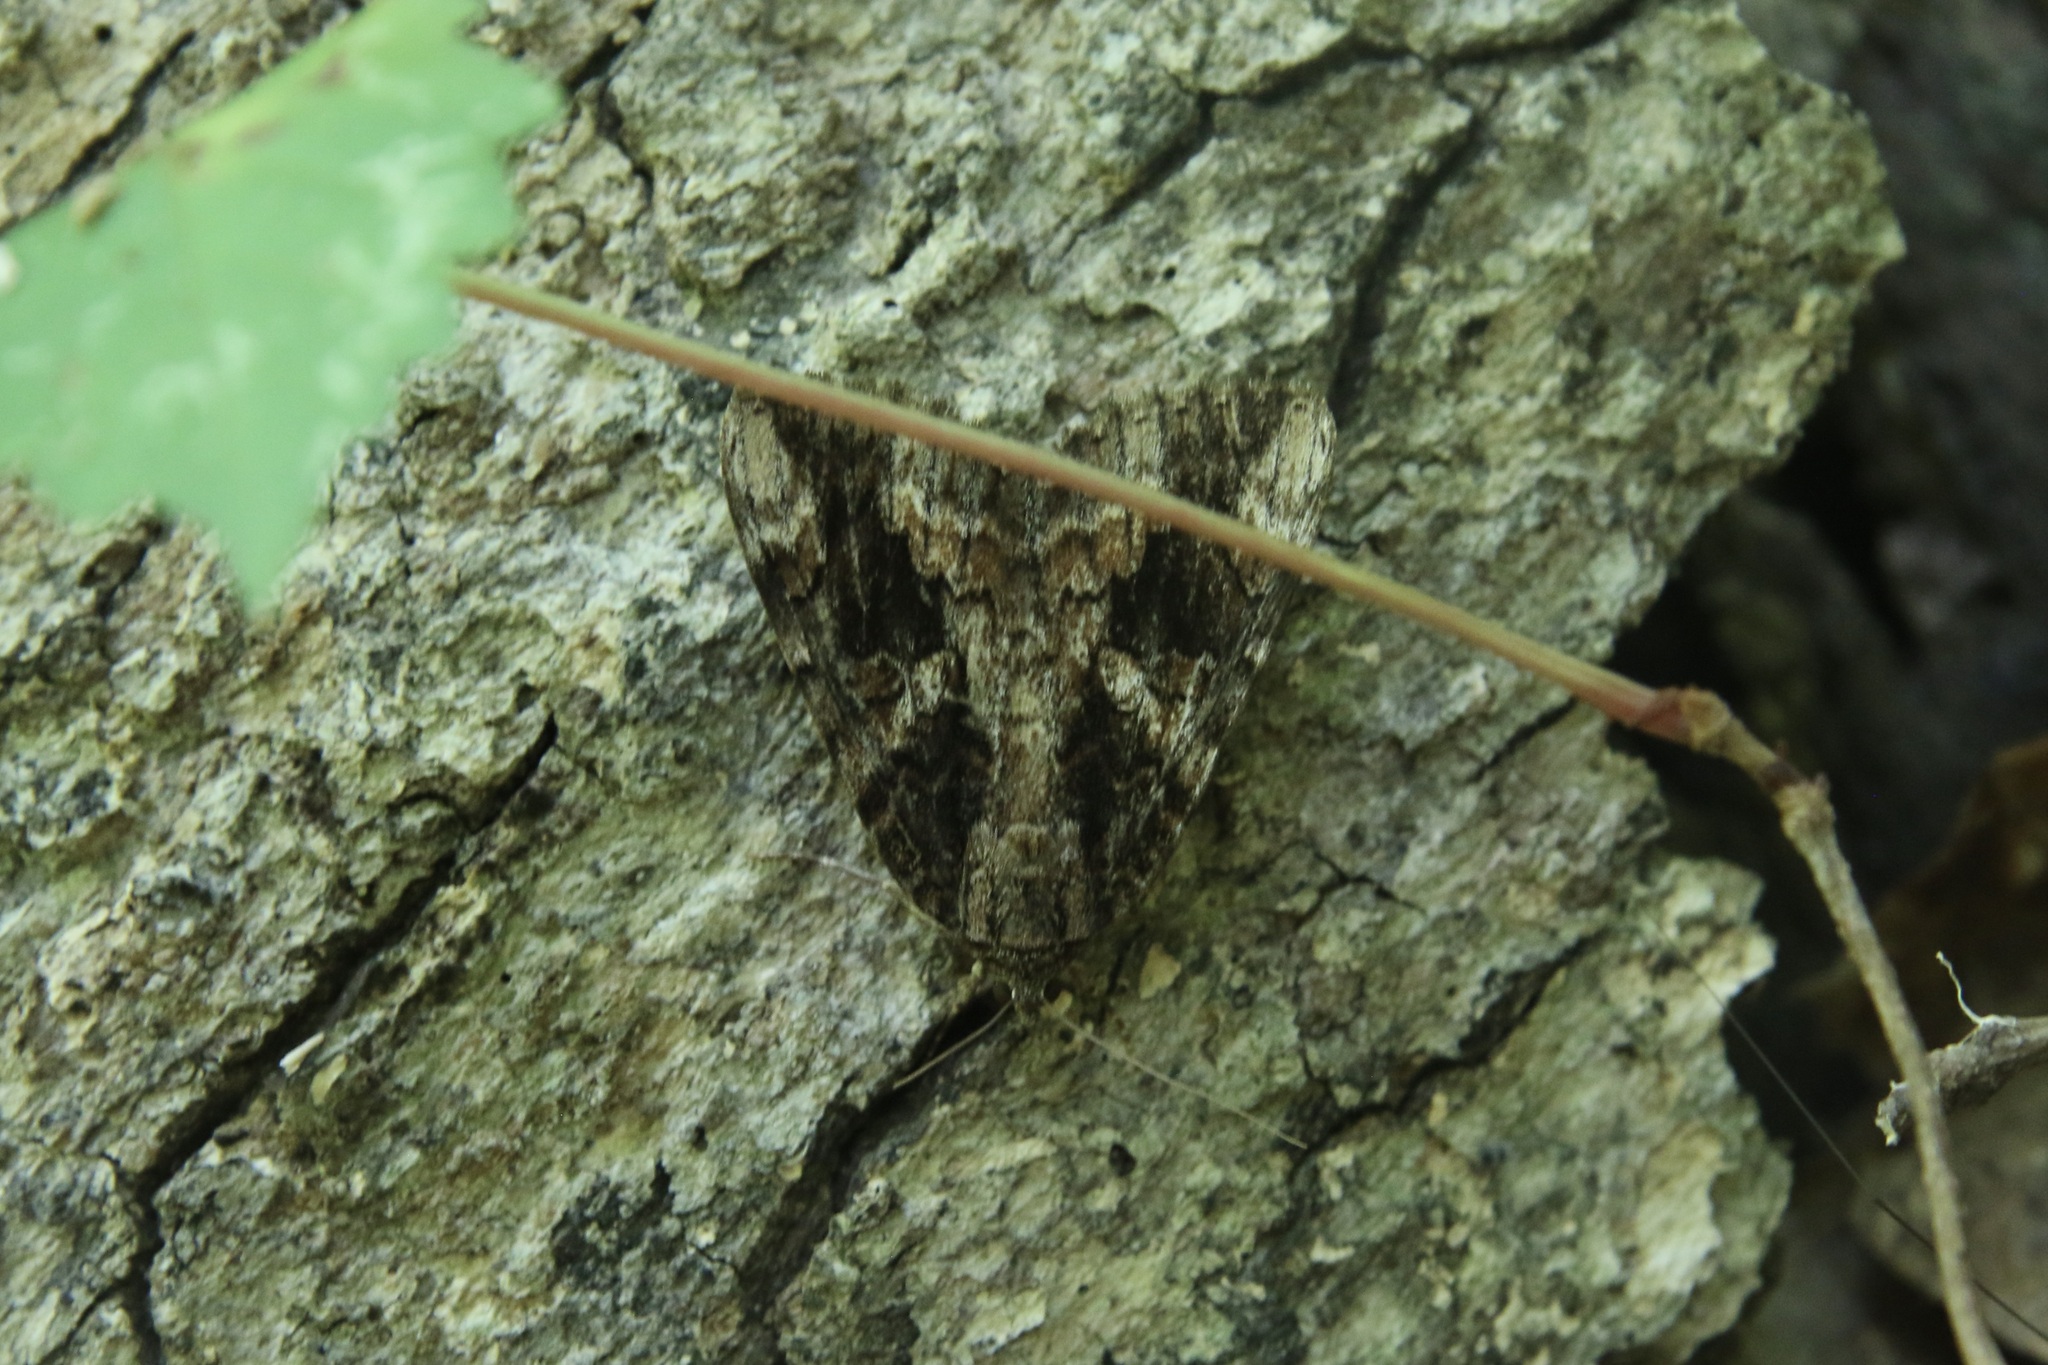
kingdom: Animalia
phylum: Arthropoda
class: Insecta
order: Lepidoptera
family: Erebidae
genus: Catocala
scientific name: Catocala innubens
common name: Betrothed underwing
